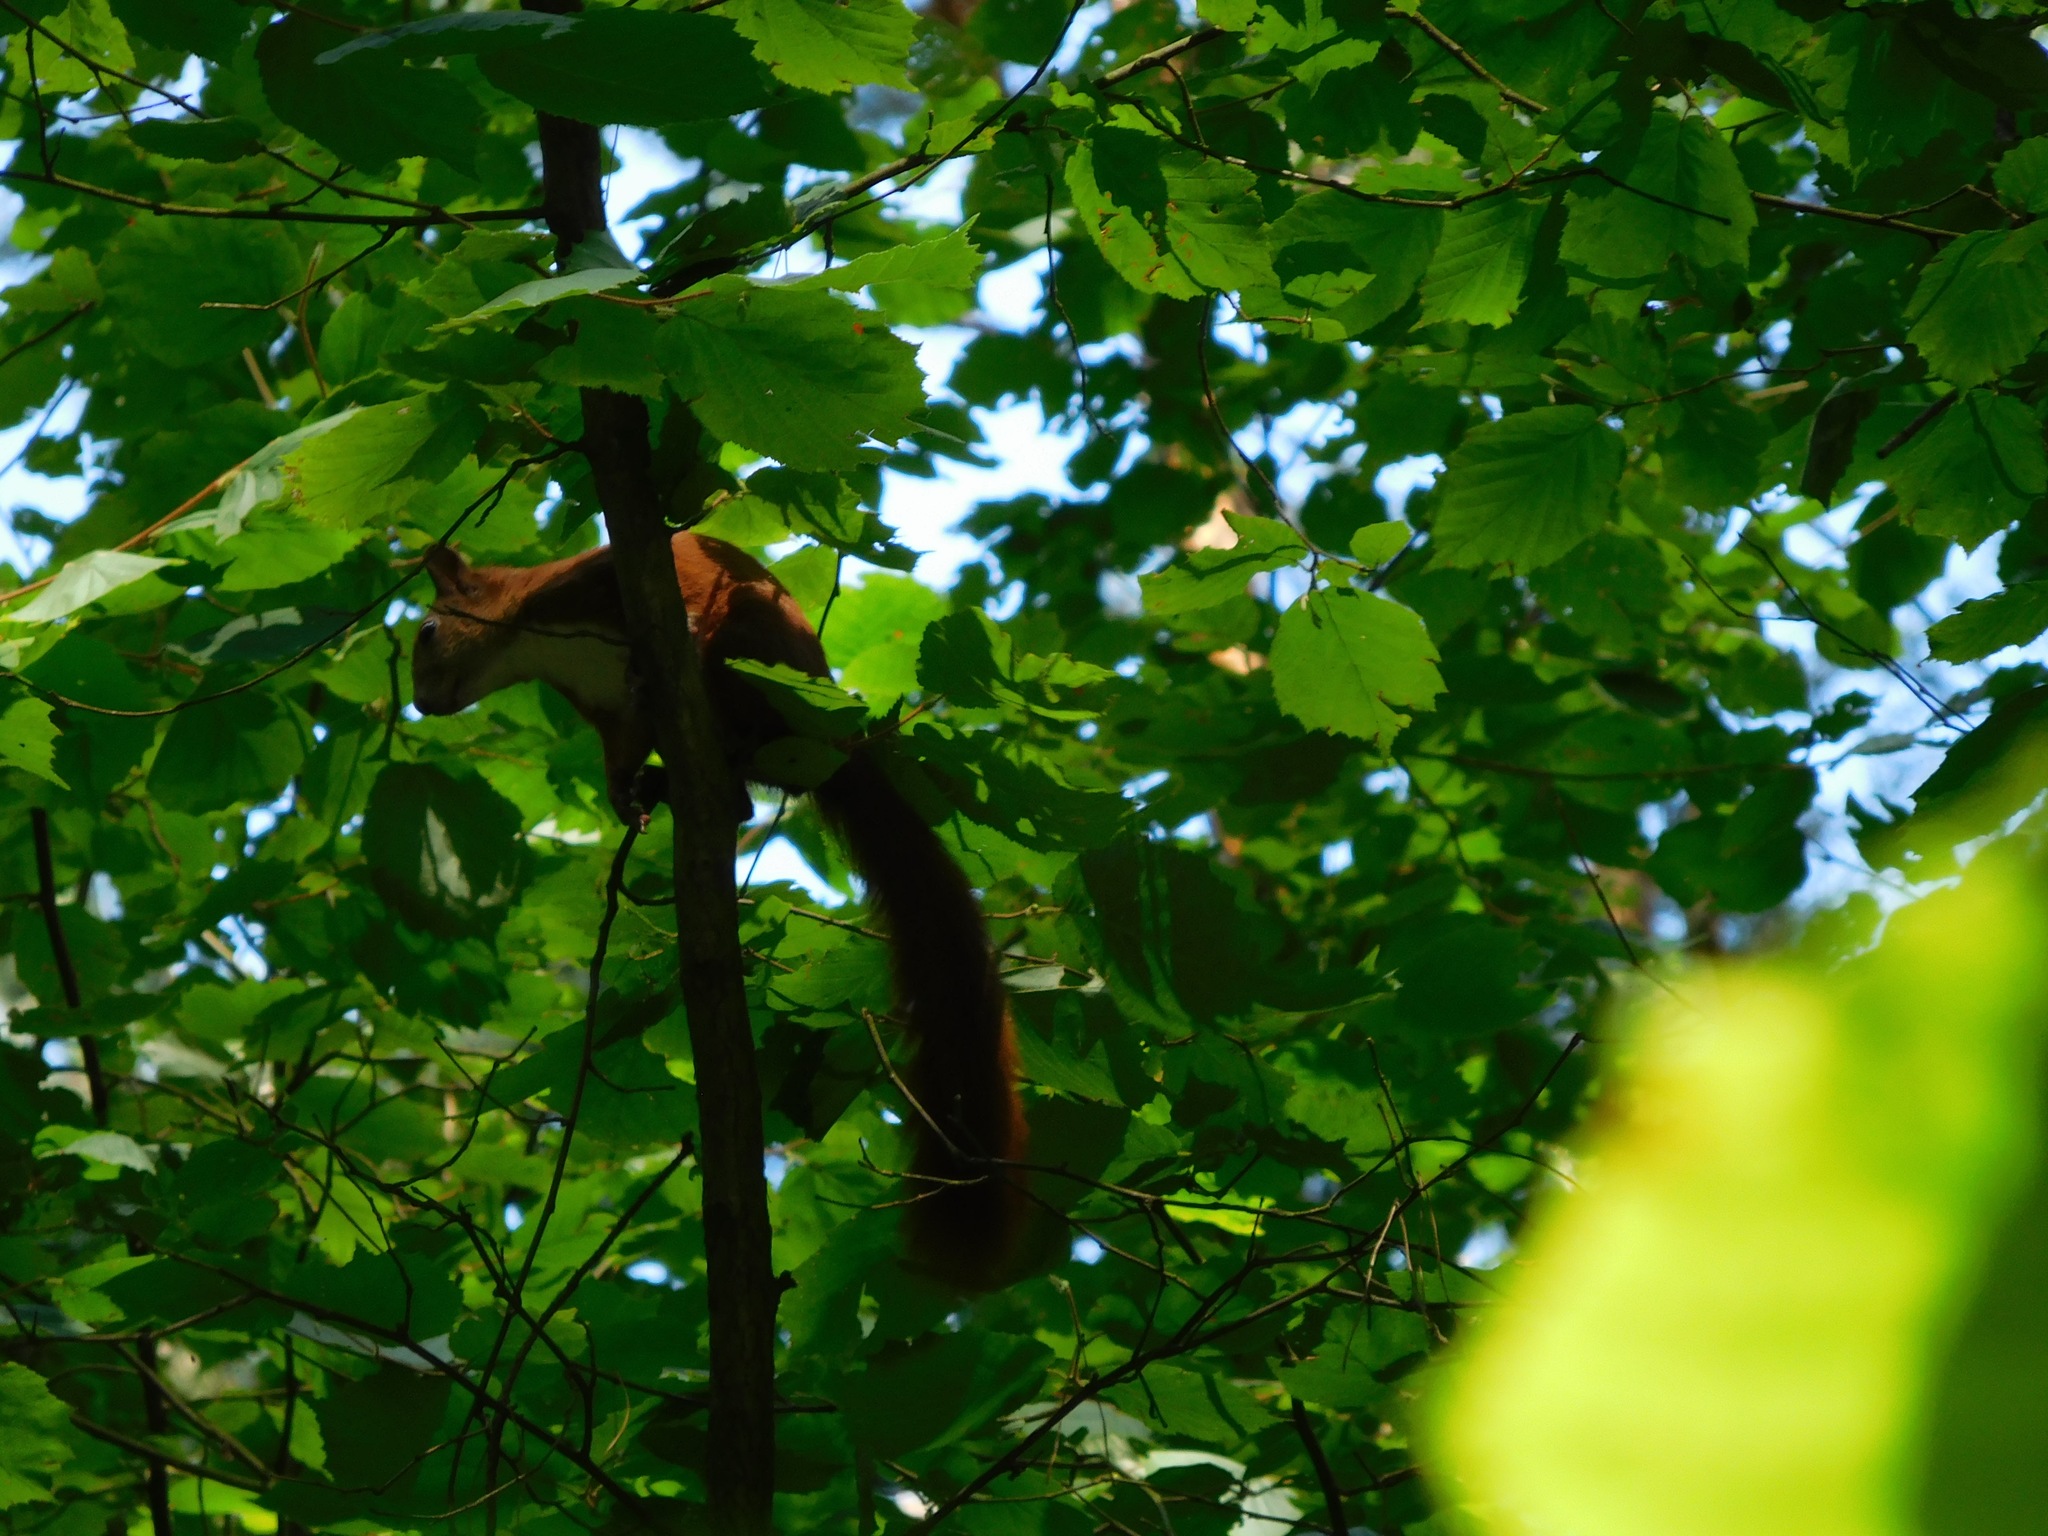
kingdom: Animalia
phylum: Chordata
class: Mammalia
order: Rodentia
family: Sciuridae
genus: Sciurus
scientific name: Sciurus vulgaris
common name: Eurasian red squirrel
